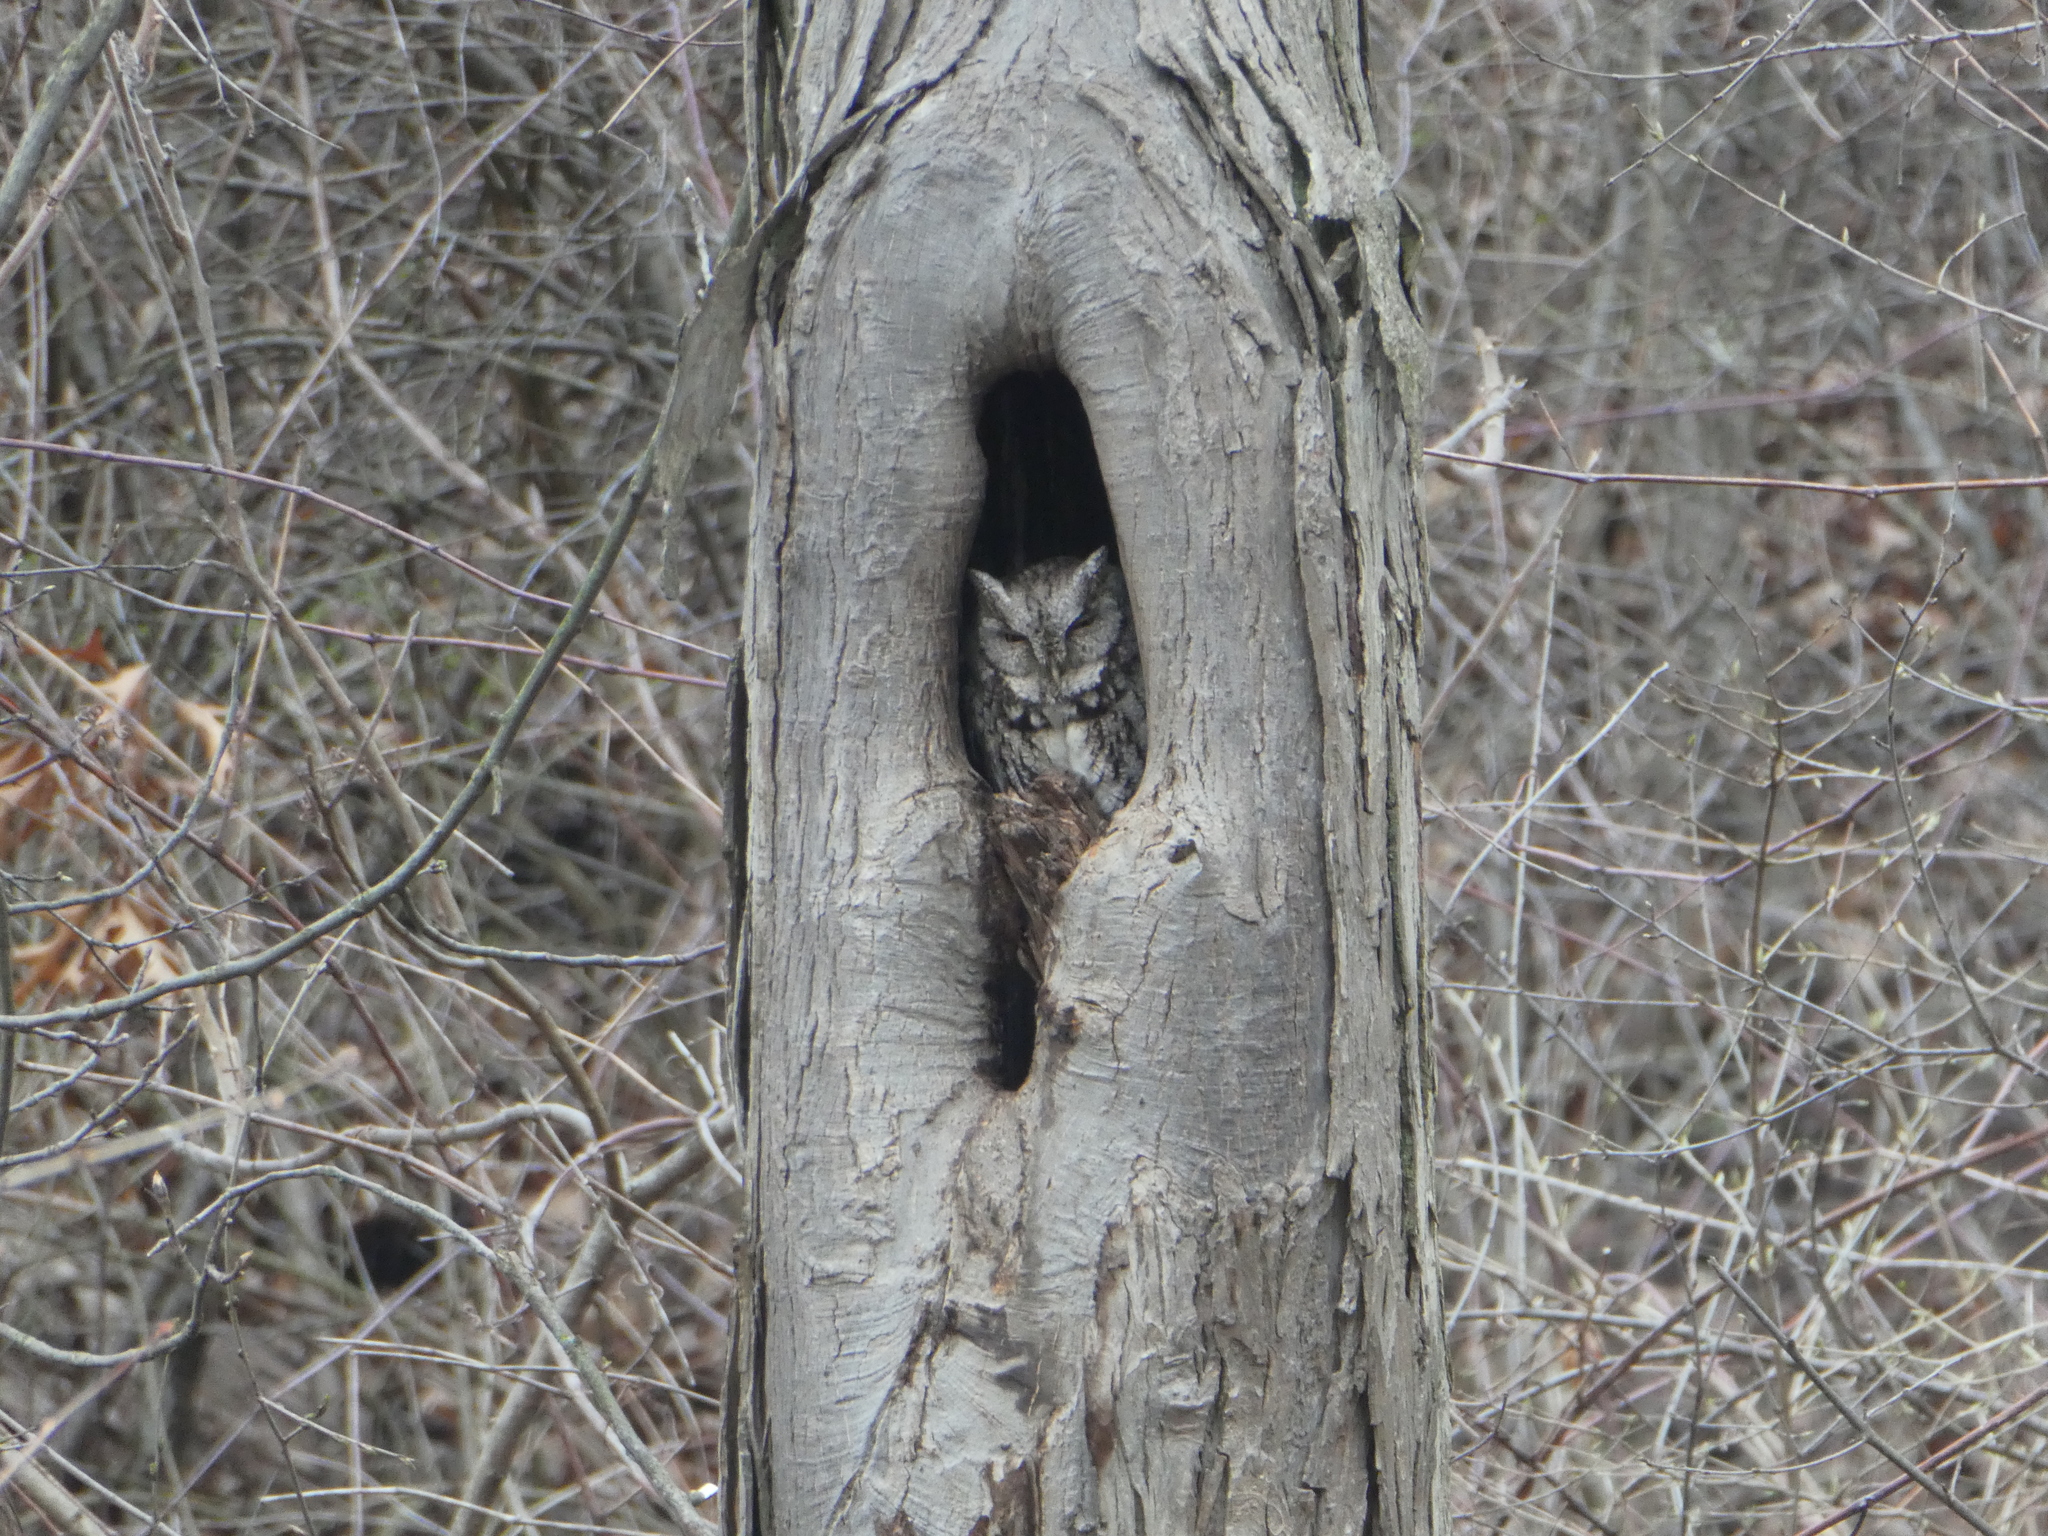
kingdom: Animalia
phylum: Chordata
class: Aves
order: Strigiformes
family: Strigidae
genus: Megascops
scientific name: Megascops asio
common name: Eastern screech-owl
